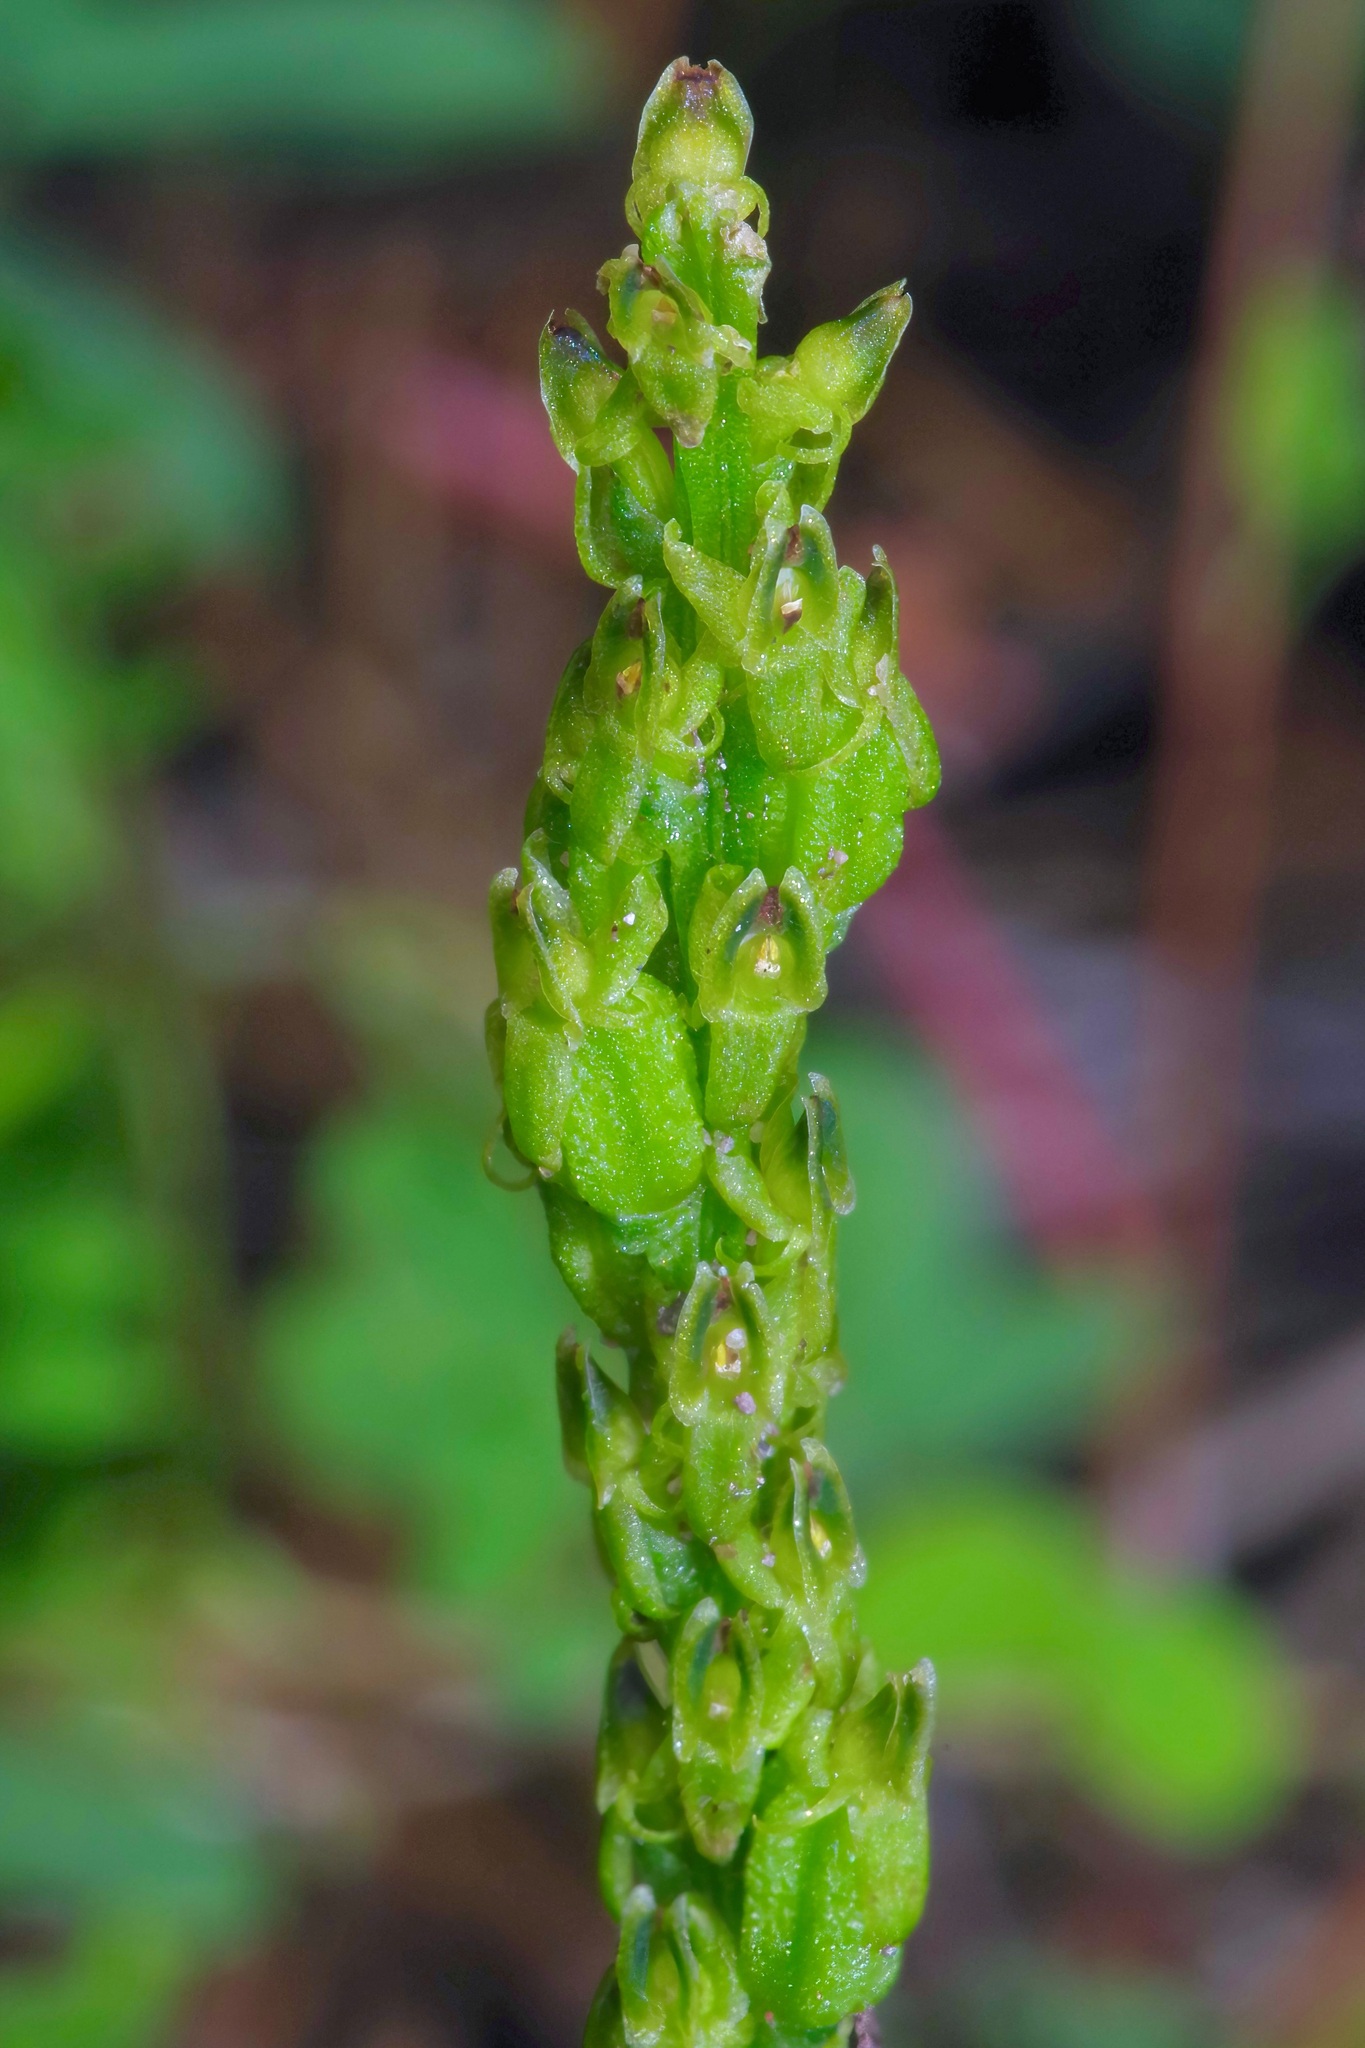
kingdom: Plantae
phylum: Tracheophyta
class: Liliopsida
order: Asparagales
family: Orchidaceae
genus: Malaxis
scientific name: Malaxis macrostachya
